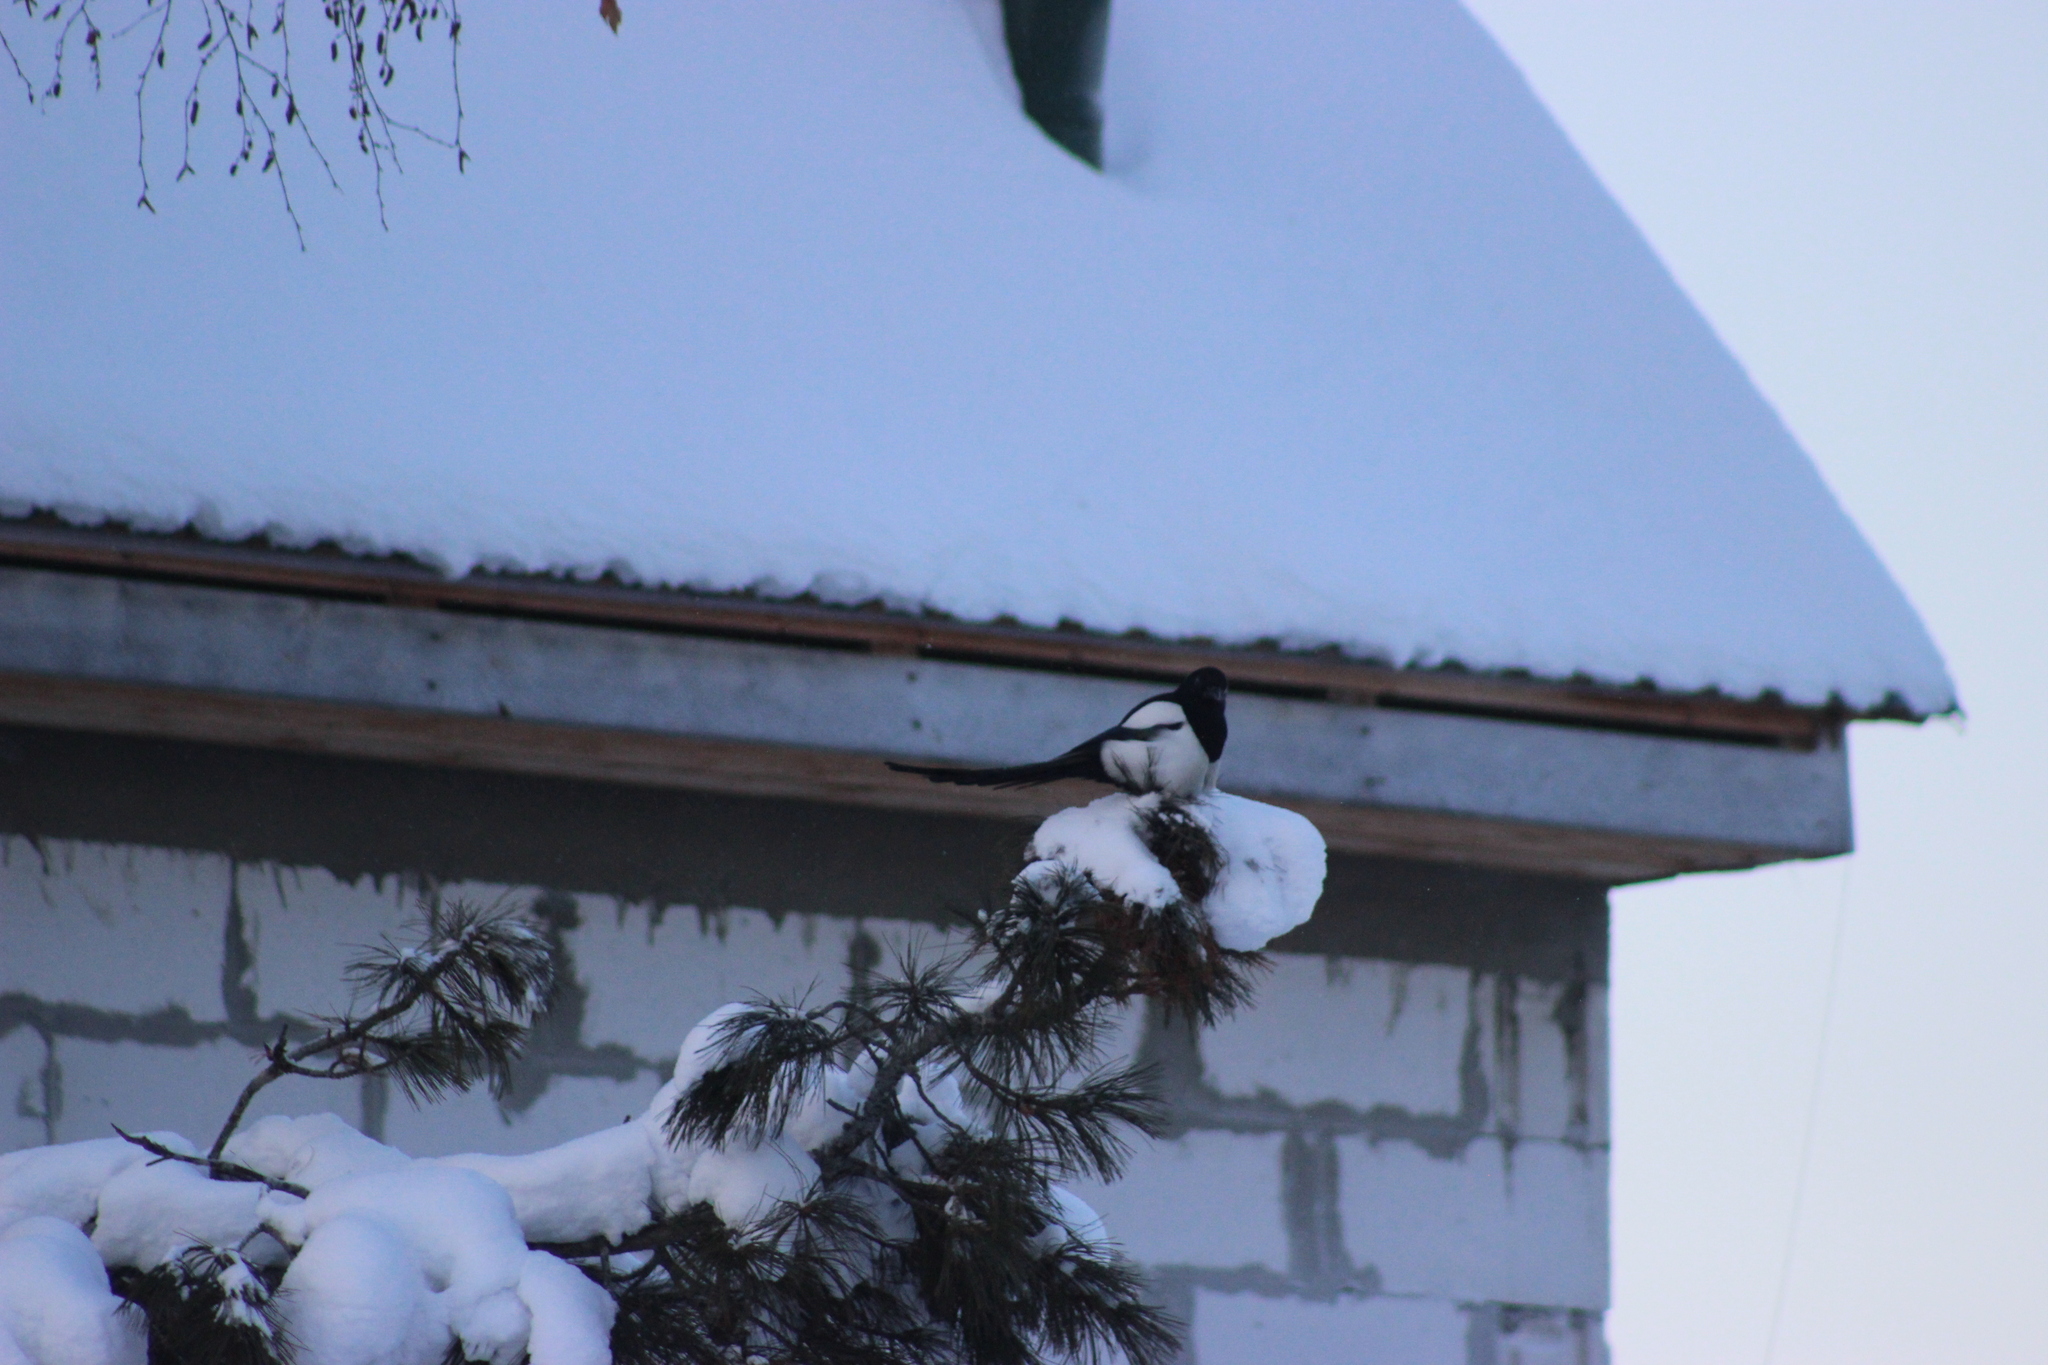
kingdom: Animalia
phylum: Chordata
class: Aves
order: Passeriformes
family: Corvidae
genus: Pica
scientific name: Pica pica
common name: Eurasian magpie
